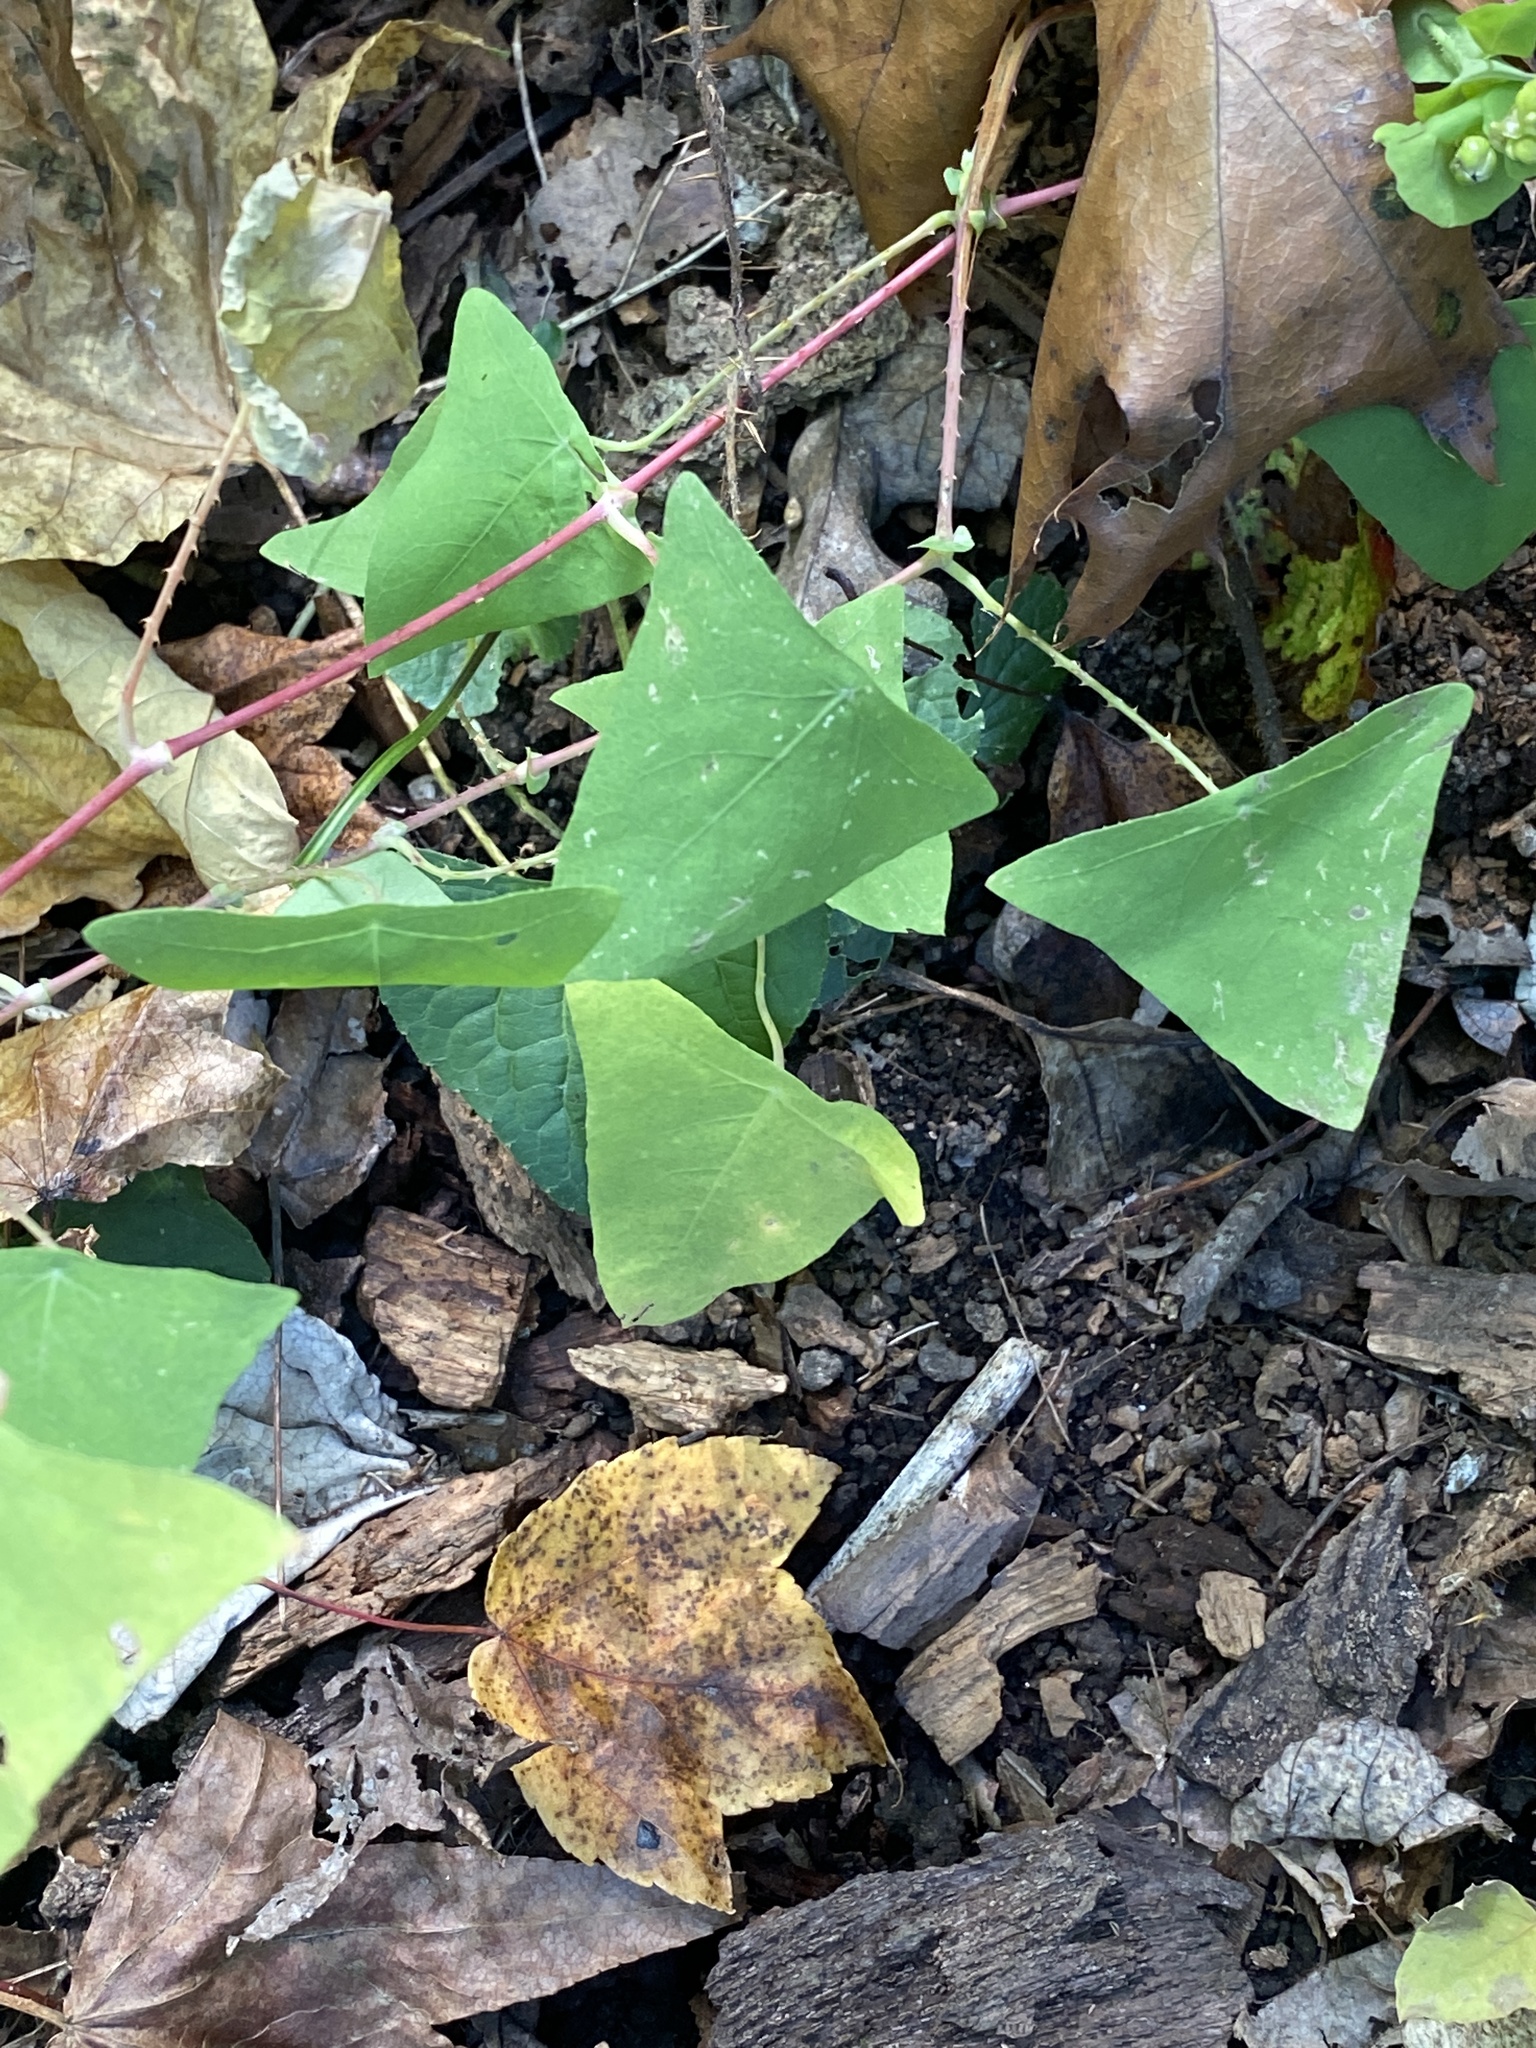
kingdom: Plantae
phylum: Tracheophyta
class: Magnoliopsida
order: Caryophyllales
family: Polygonaceae
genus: Persicaria
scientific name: Persicaria perfoliata
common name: Asiatic tearthumb
